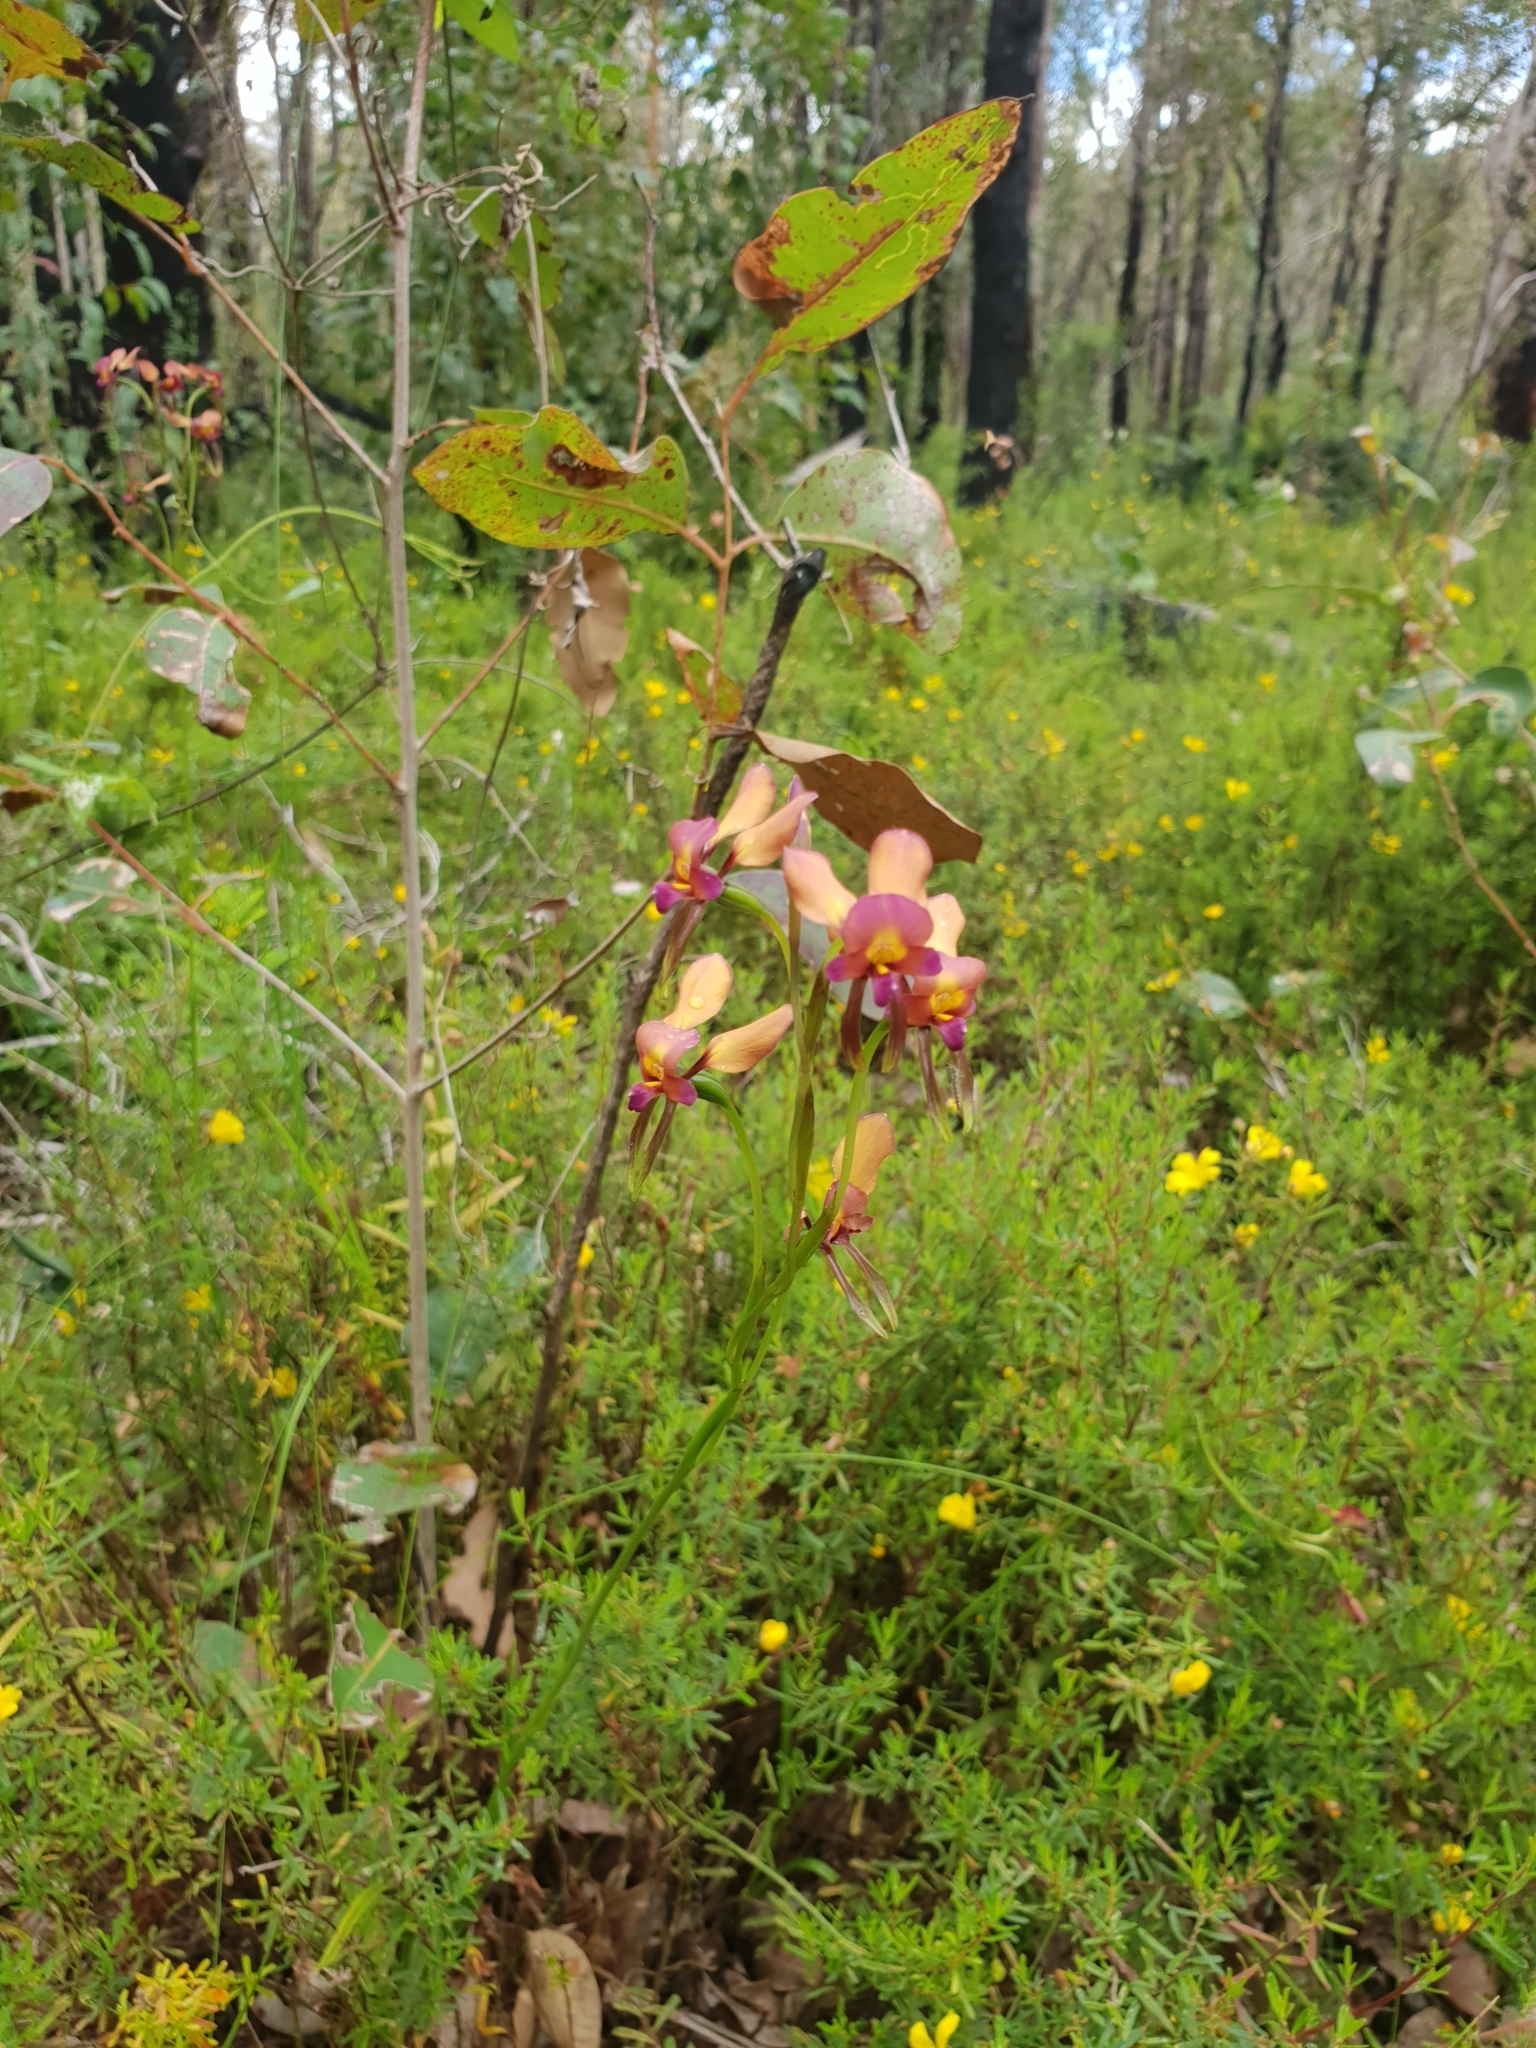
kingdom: Plantae
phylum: Tracheophyta
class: Liliopsida
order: Asparagales
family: Orchidaceae
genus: Diuris
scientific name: Diuris longifolia
